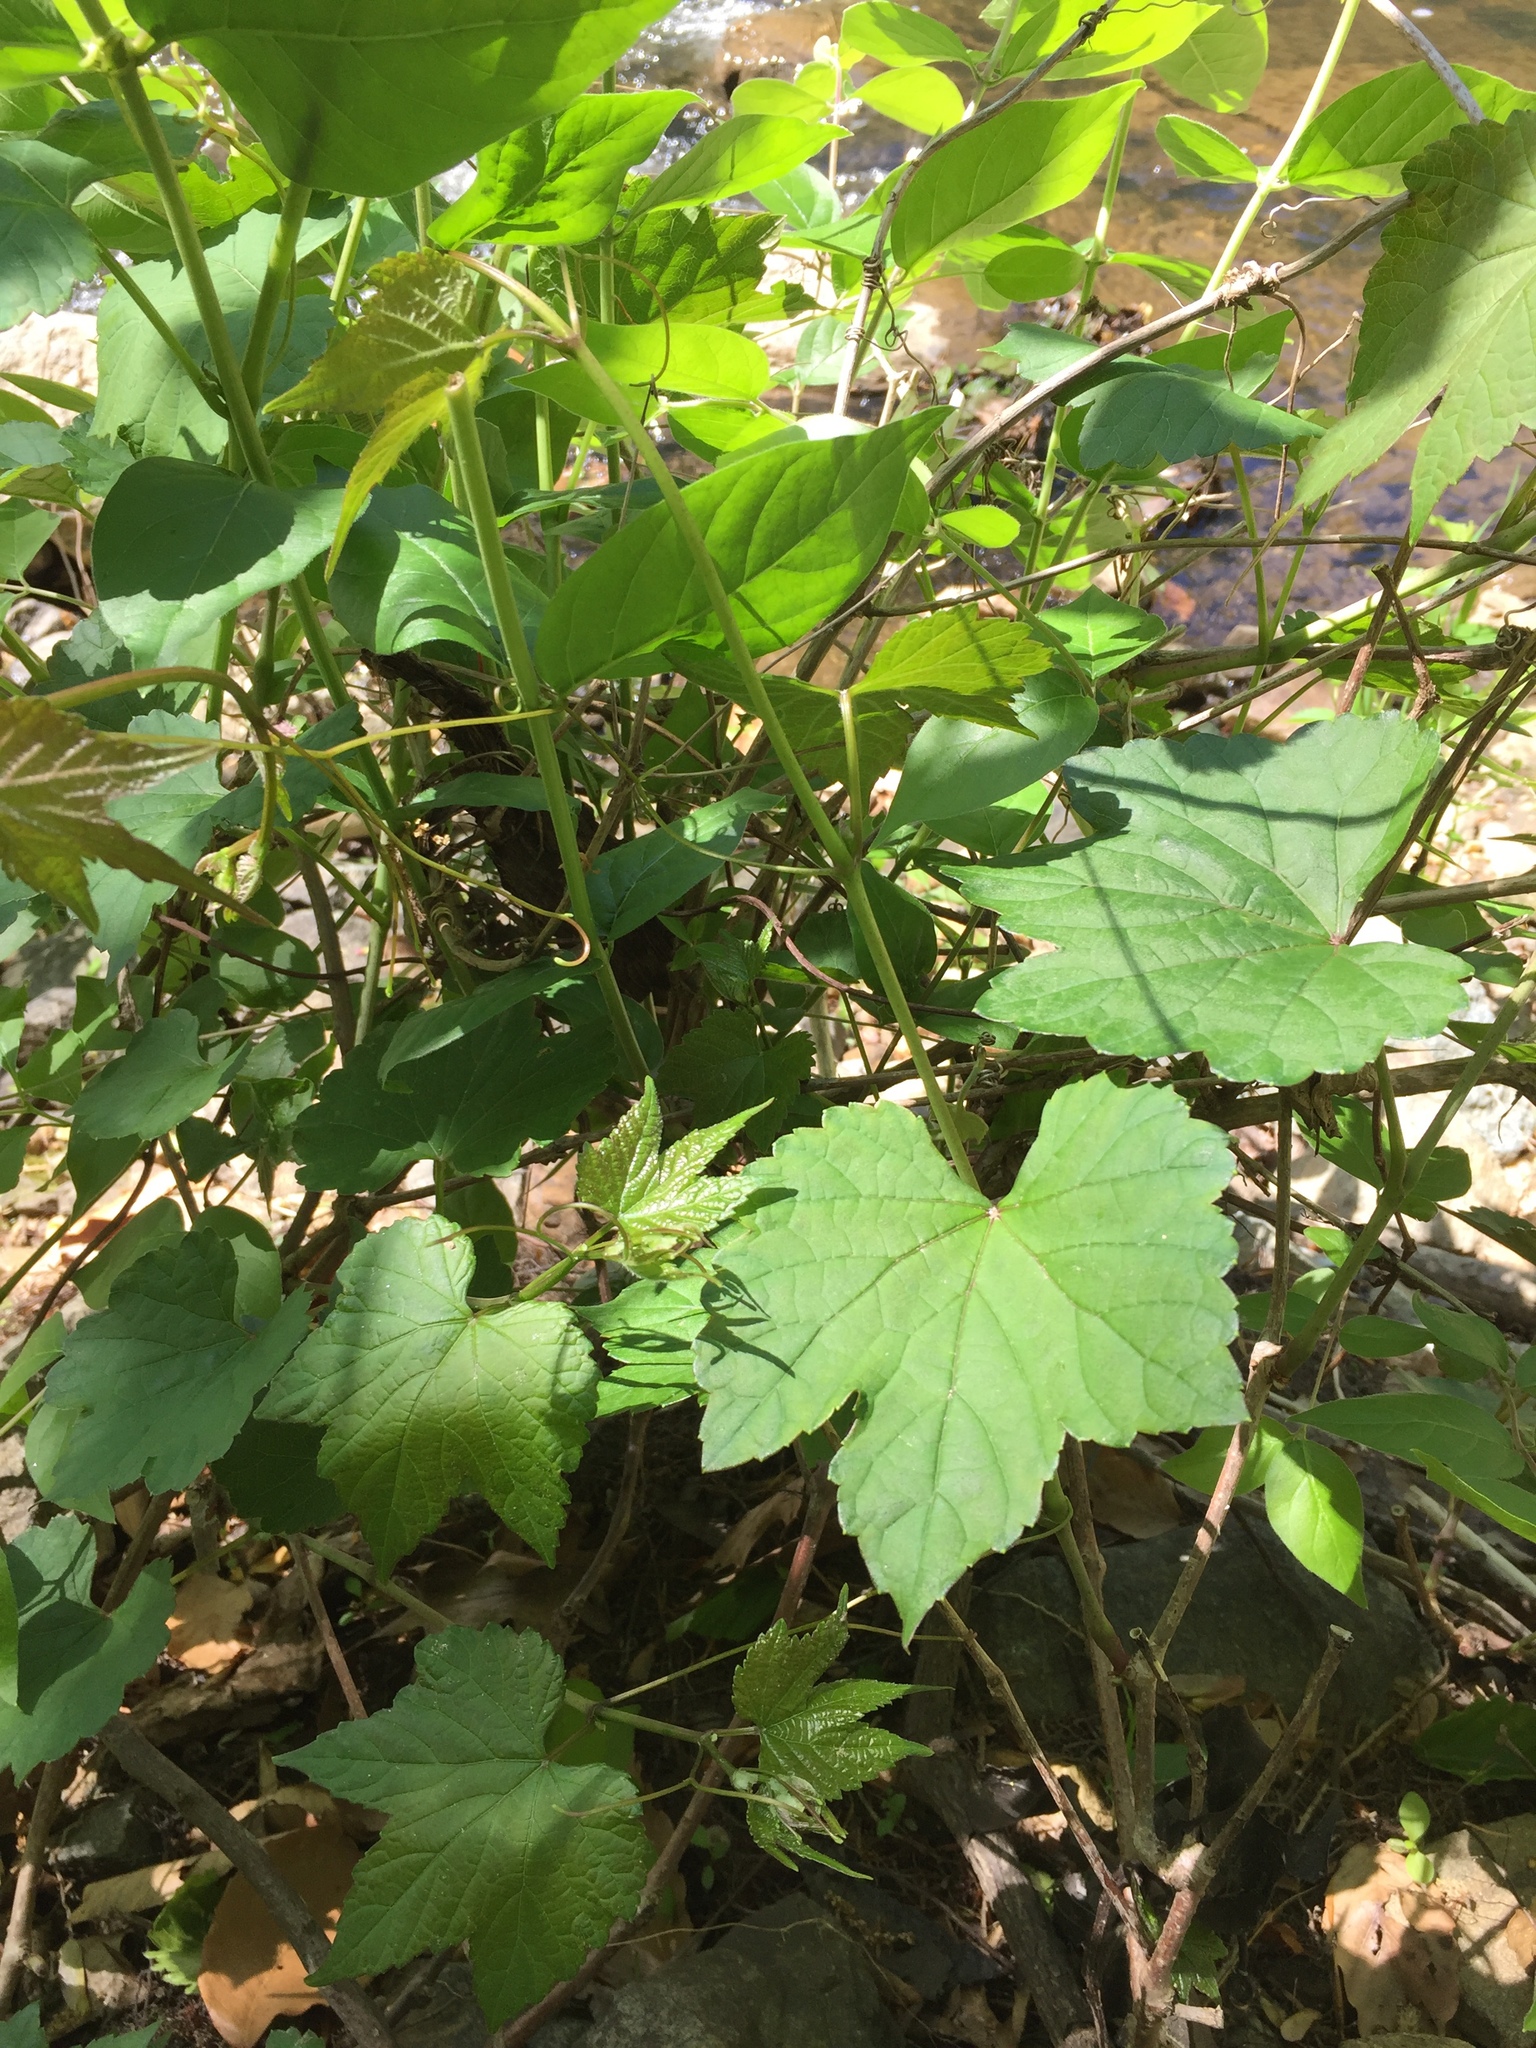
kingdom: Plantae
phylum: Tracheophyta
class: Magnoliopsida
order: Vitales
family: Vitaceae
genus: Ampelopsis
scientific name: Ampelopsis glandulosa
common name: Amur peppervine
